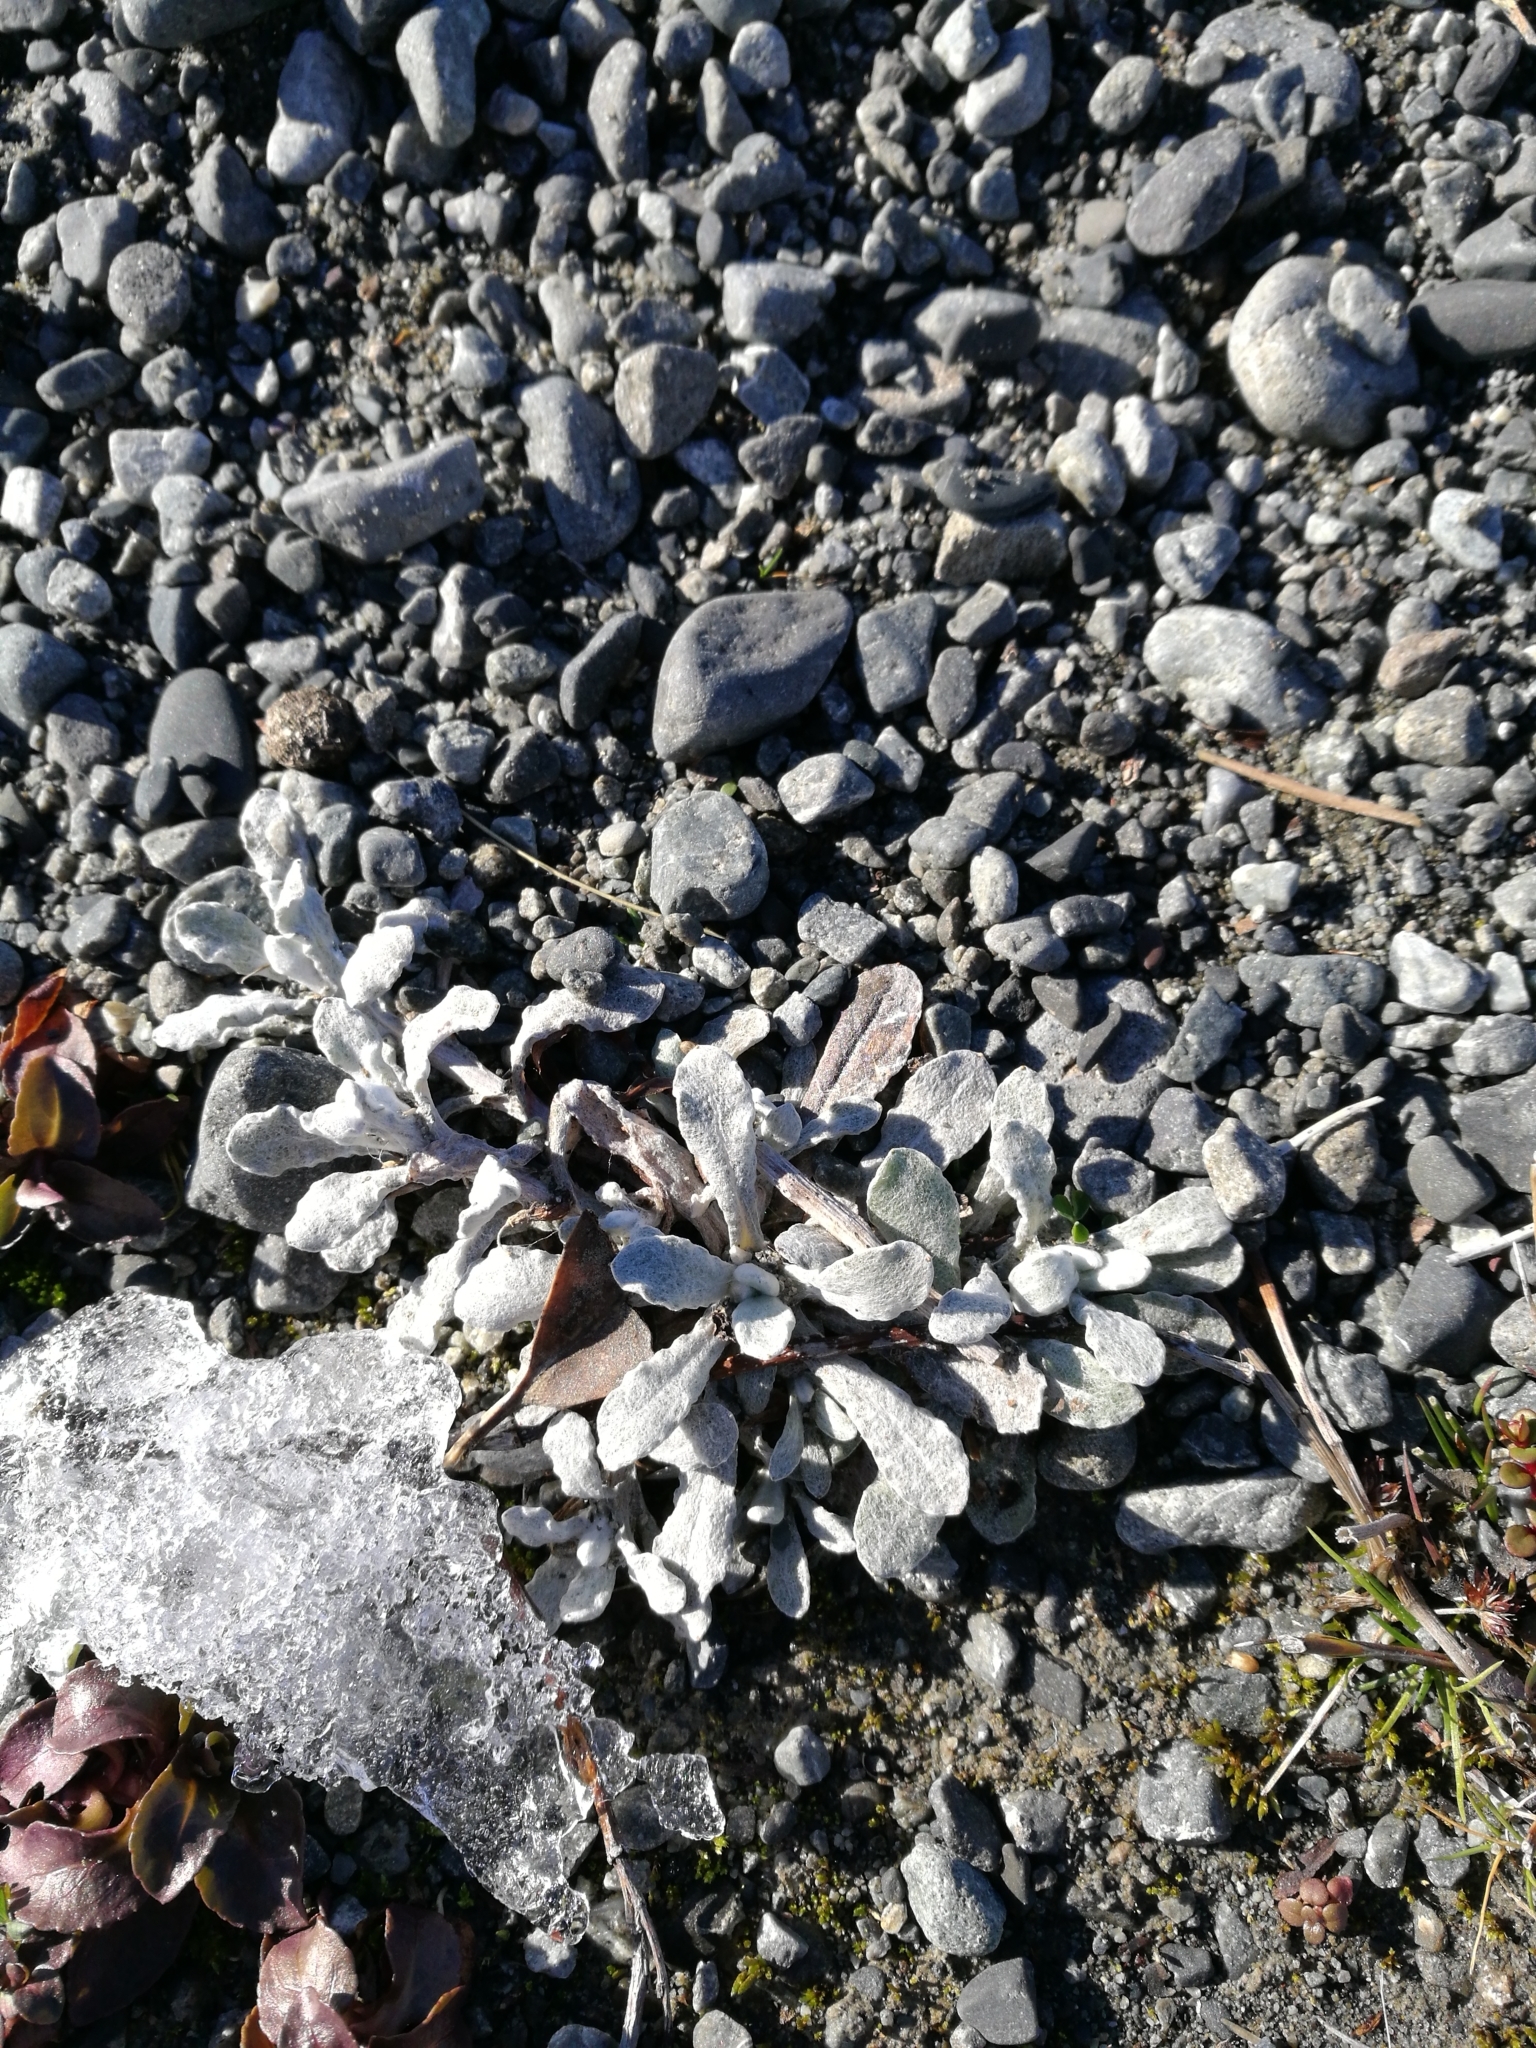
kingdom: Plantae
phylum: Tracheophyta
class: Magnoliopsida
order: Asterales
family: Asteraceae
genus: Helichrysum
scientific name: Helichrysum luteoalbum
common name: Daisy
